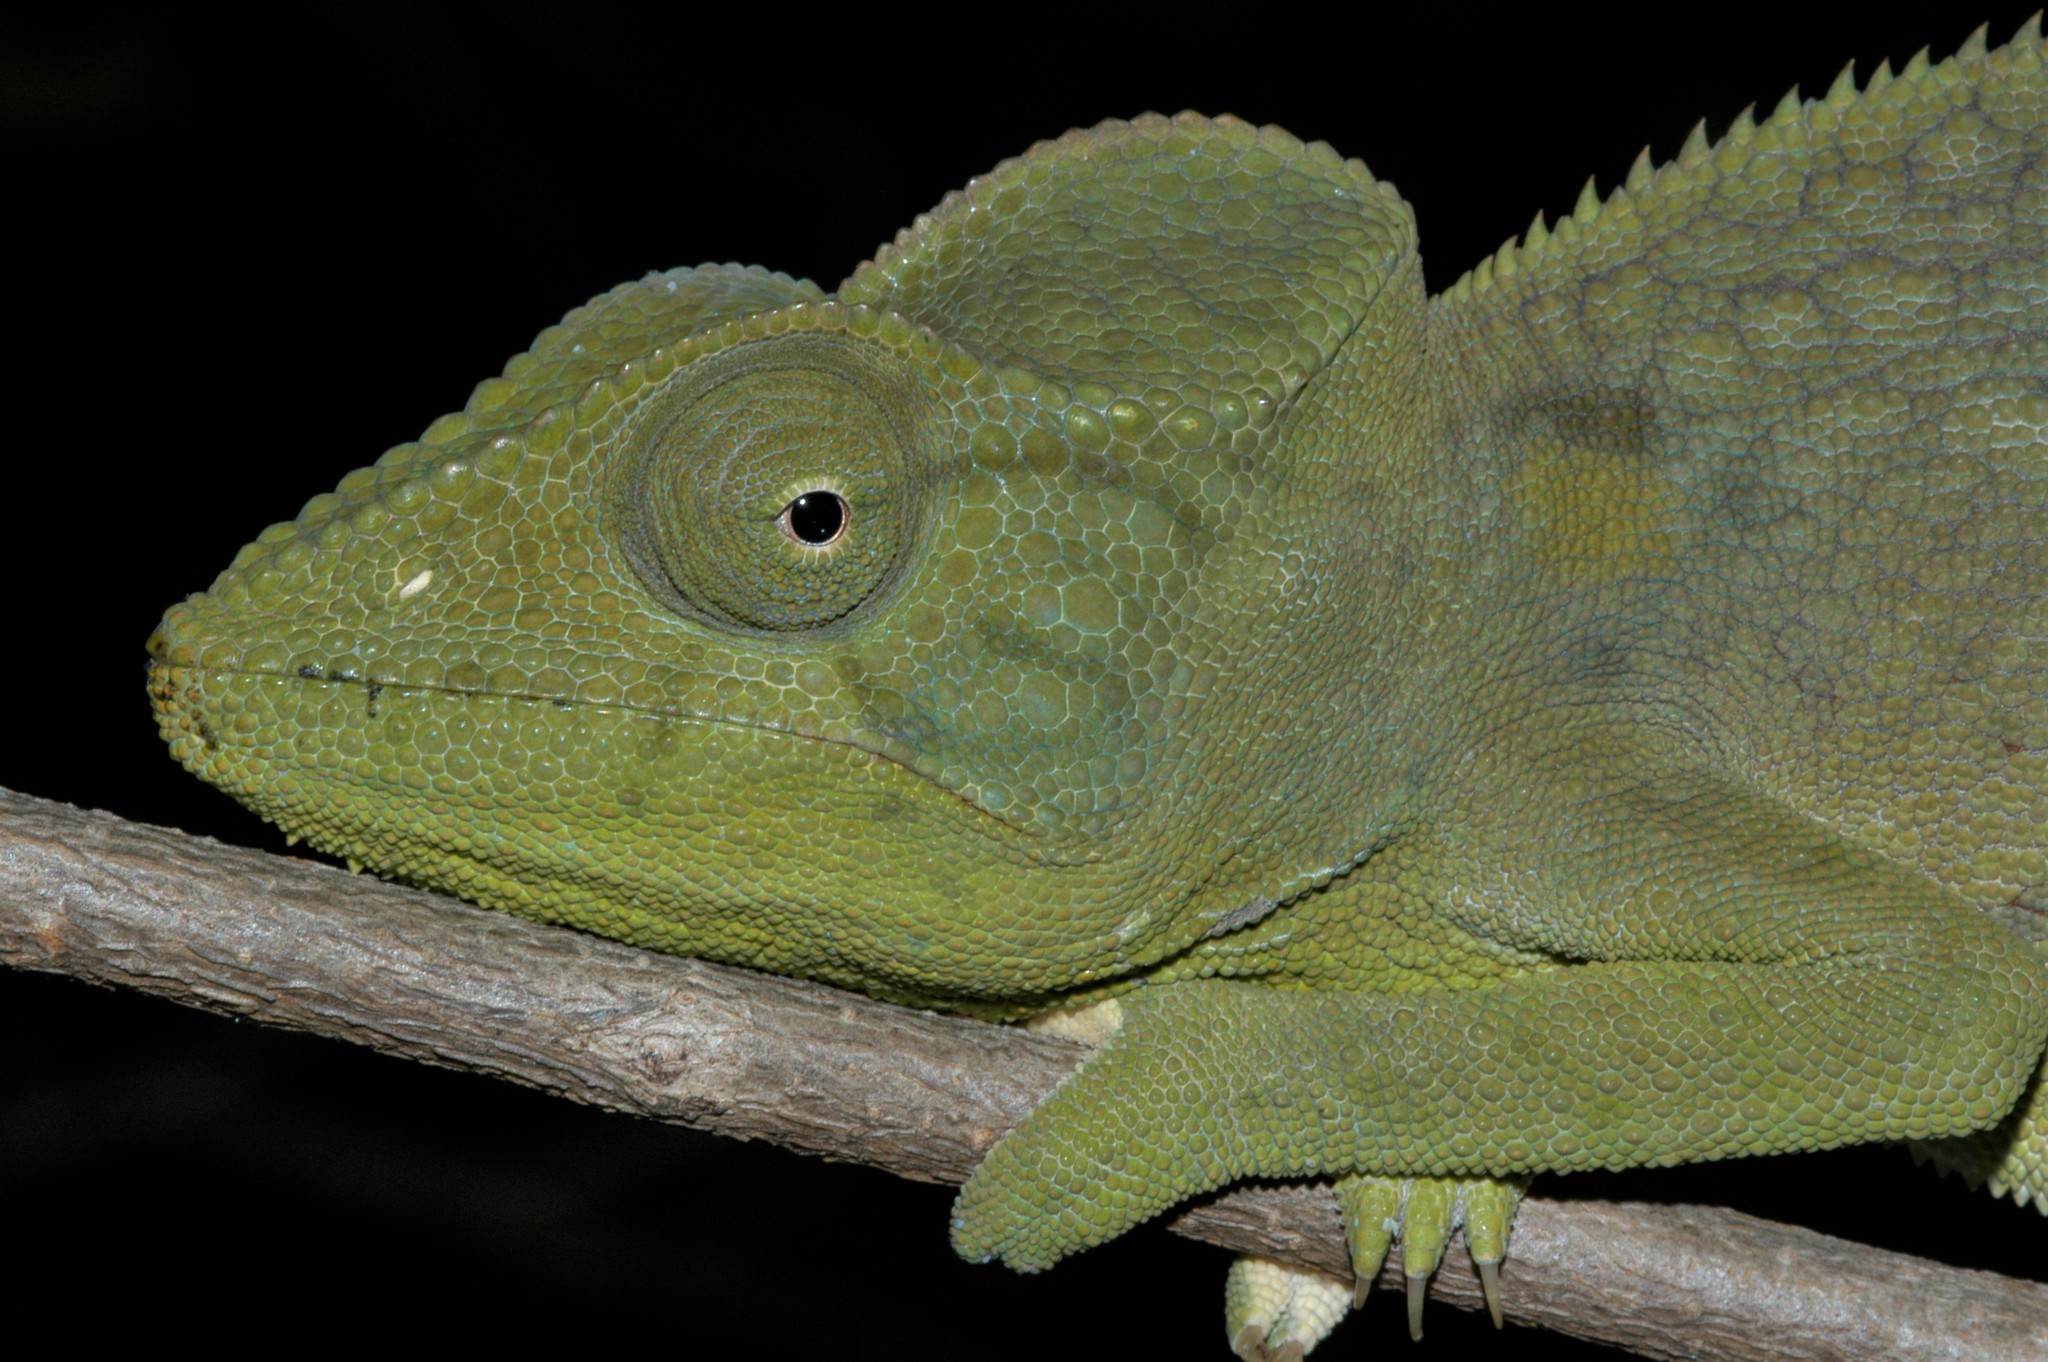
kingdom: Animalia
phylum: Chordata
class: Squamata
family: Chamaeleonidae
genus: Furcifer
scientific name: Furcifer oustaleti
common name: Oustalet's chameleon
